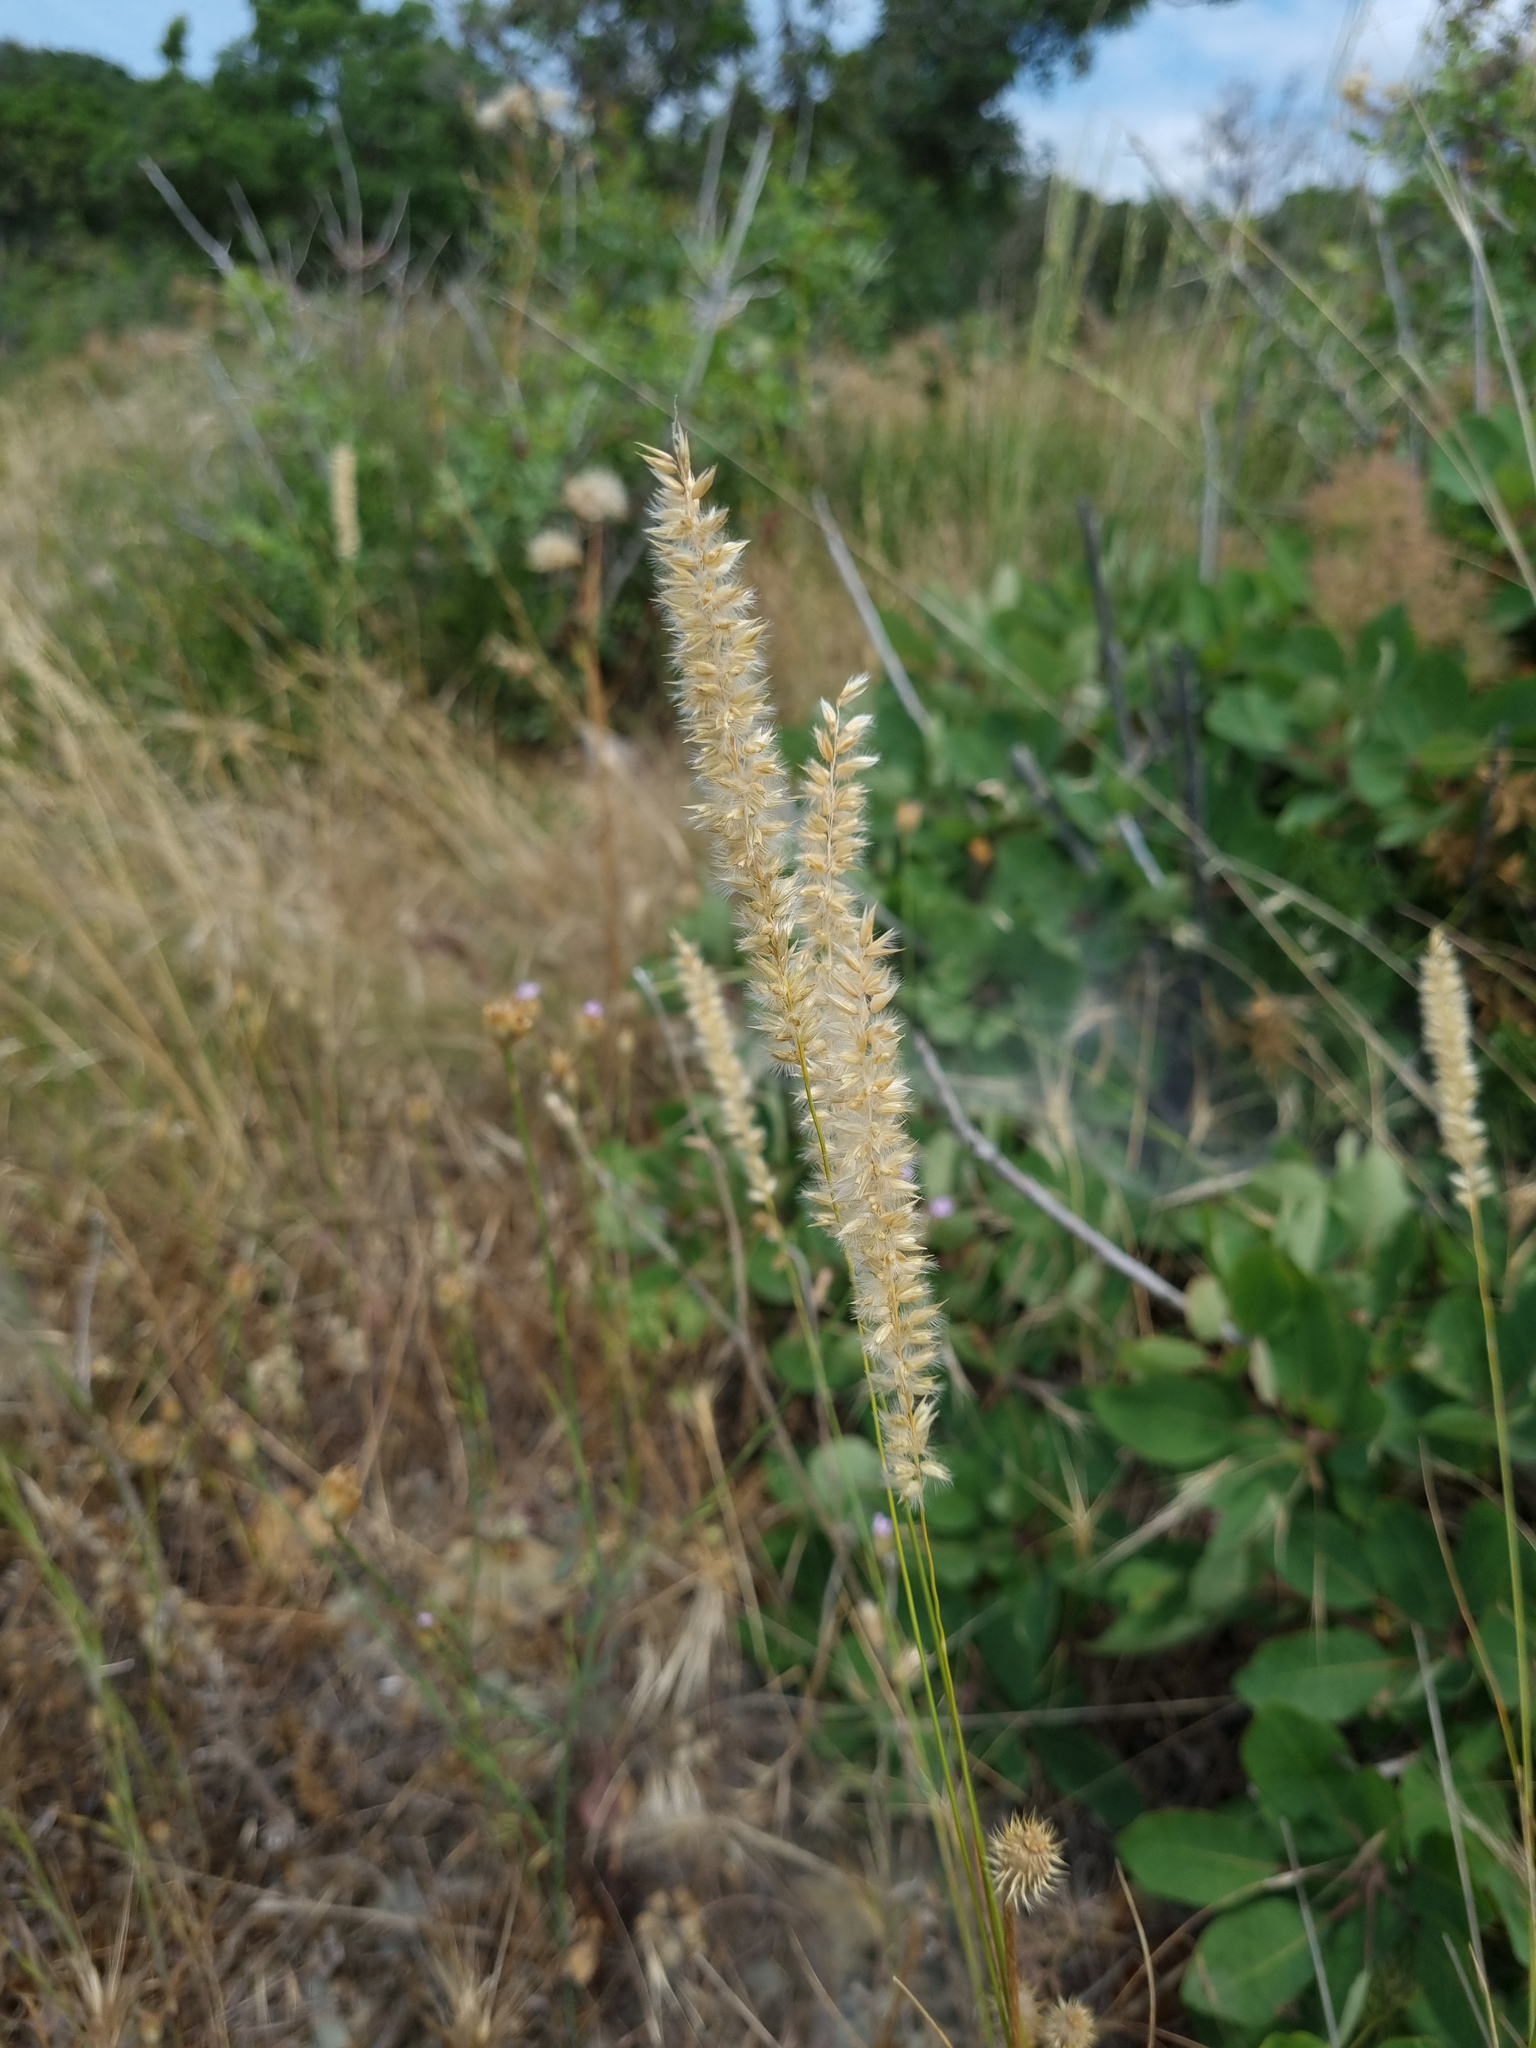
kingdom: Plantae
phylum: Tracheophyta
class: Liliopsida
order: Poales
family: Poaceae
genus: Melica
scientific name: Melica transsilvanica
